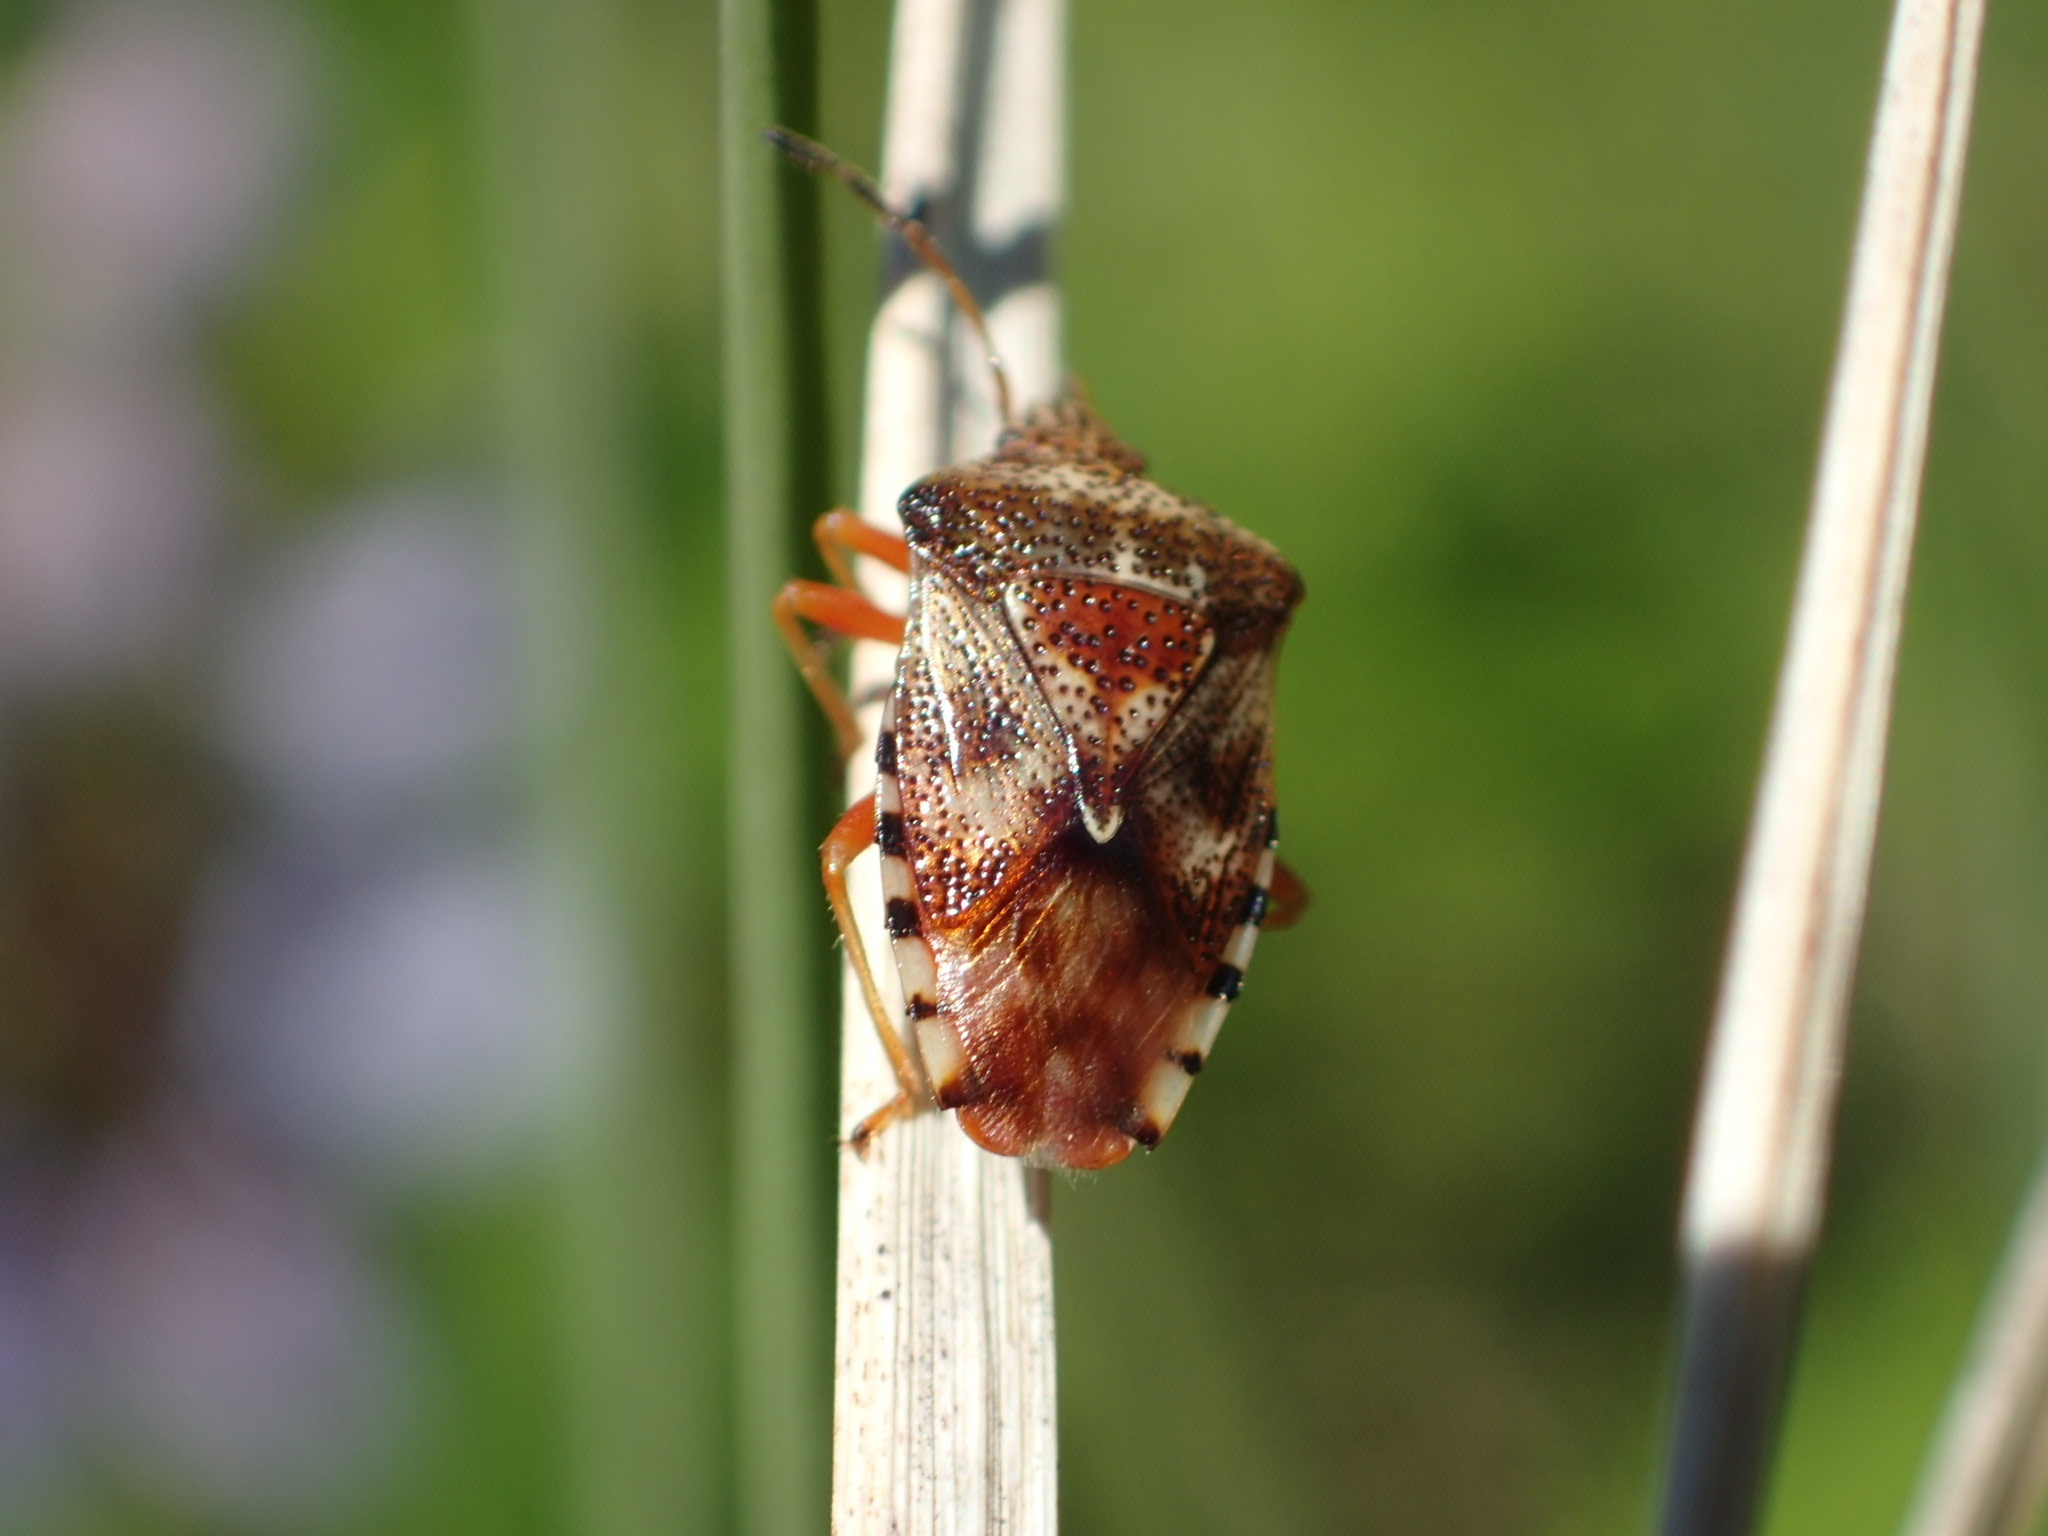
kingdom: Animalia
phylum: Arthropoda
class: Insecta
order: Hemiptera
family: Acanthosomatidae
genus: Elasmucha
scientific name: Elasmucha lateralis
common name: Shield bug
